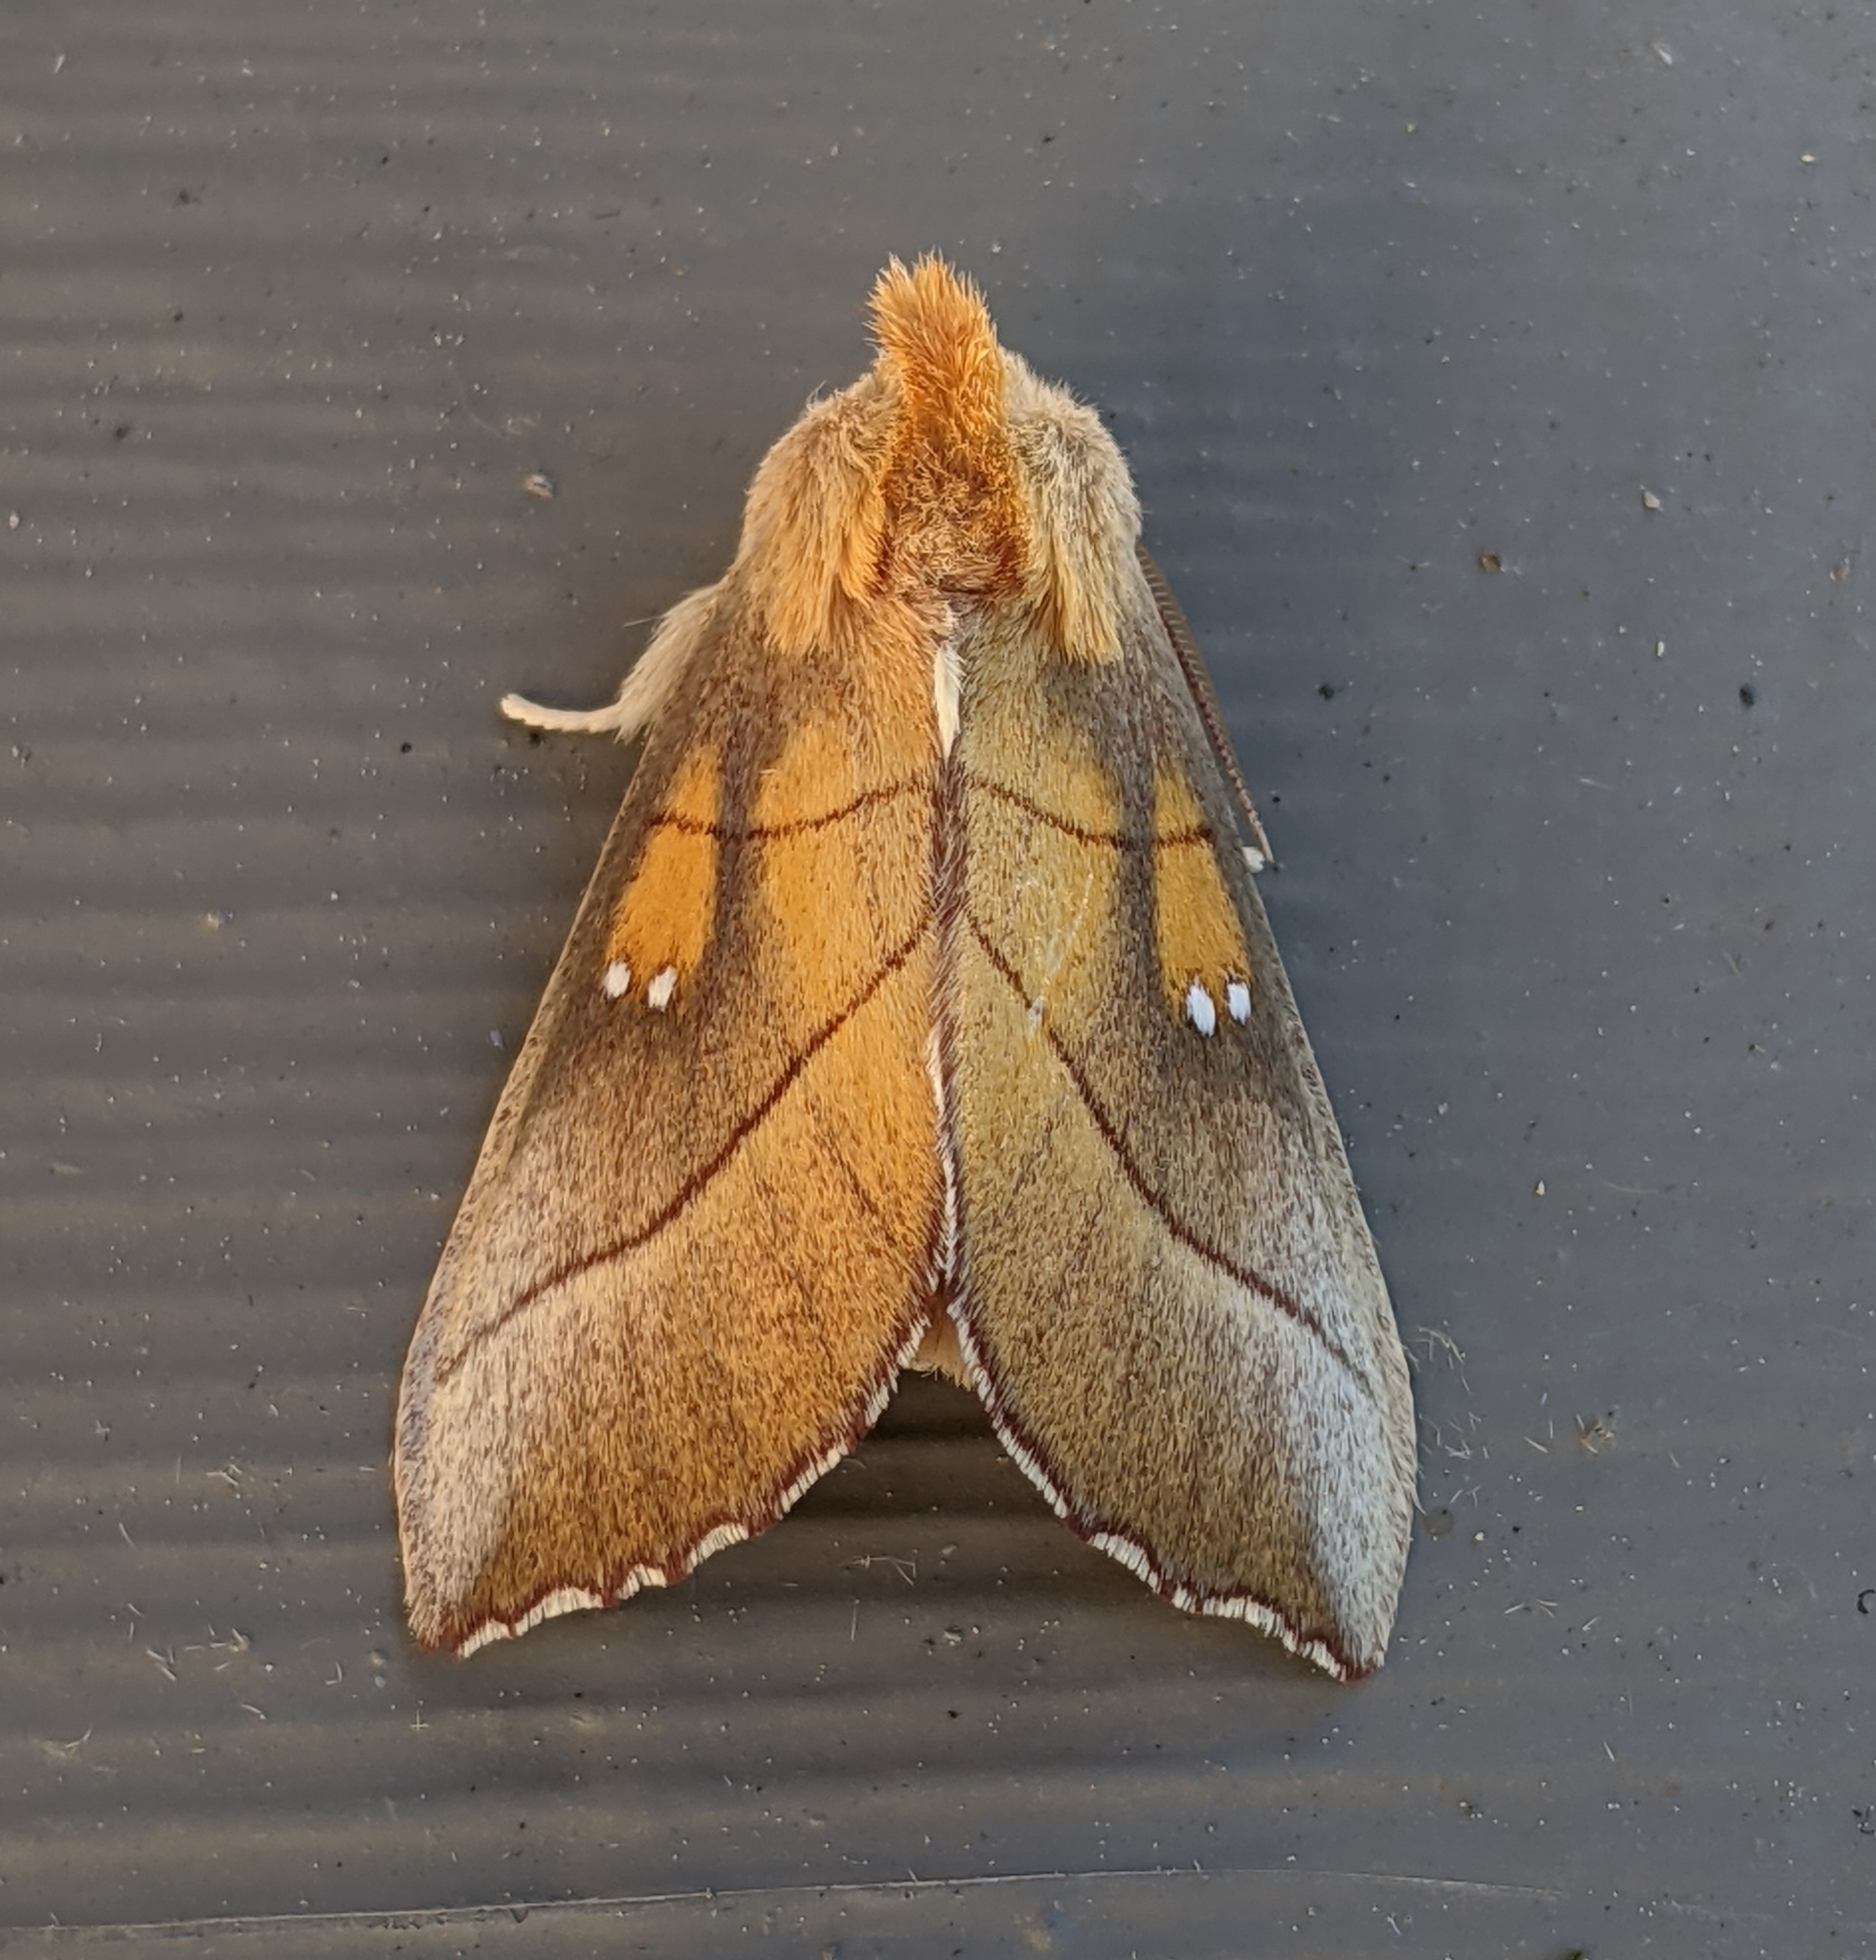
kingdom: Animalia
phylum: Arthropoda
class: Insecta
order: Lepidoptera
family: Notodontidae
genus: Nadata
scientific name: Nadata gibbosa
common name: White-dotted prominent
